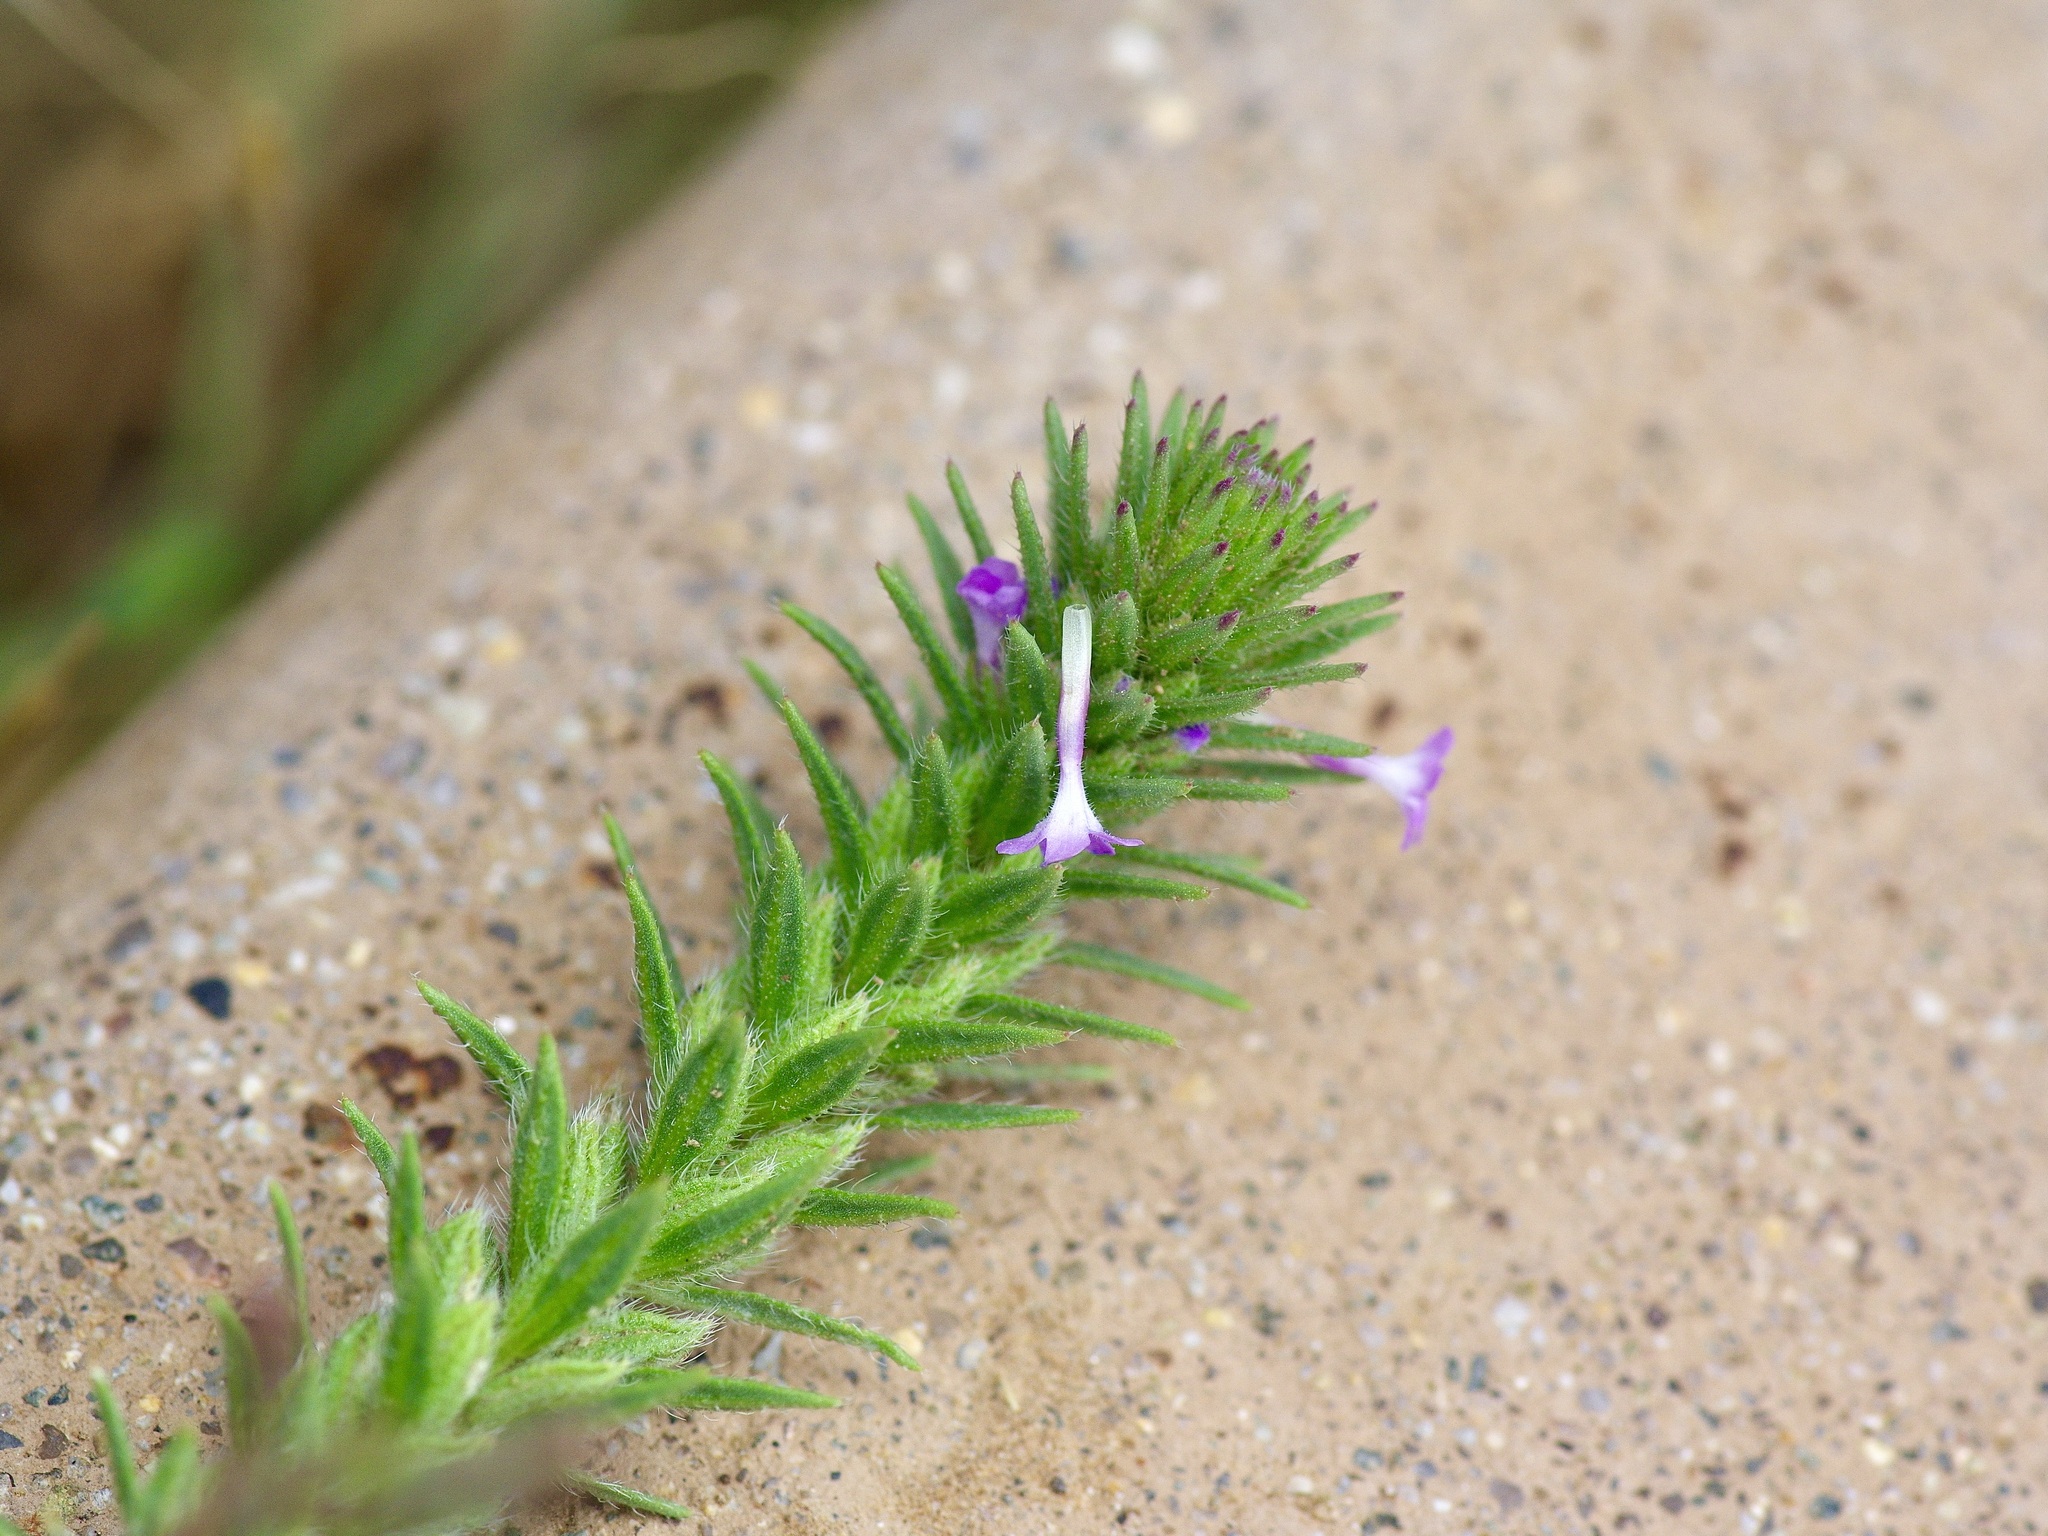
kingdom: Plantae
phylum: Tracheophyta
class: Magnoliopsida
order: Lamiales
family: Verbenaceae
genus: Verbena
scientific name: Verbena bracteata
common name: Bracted vervain
